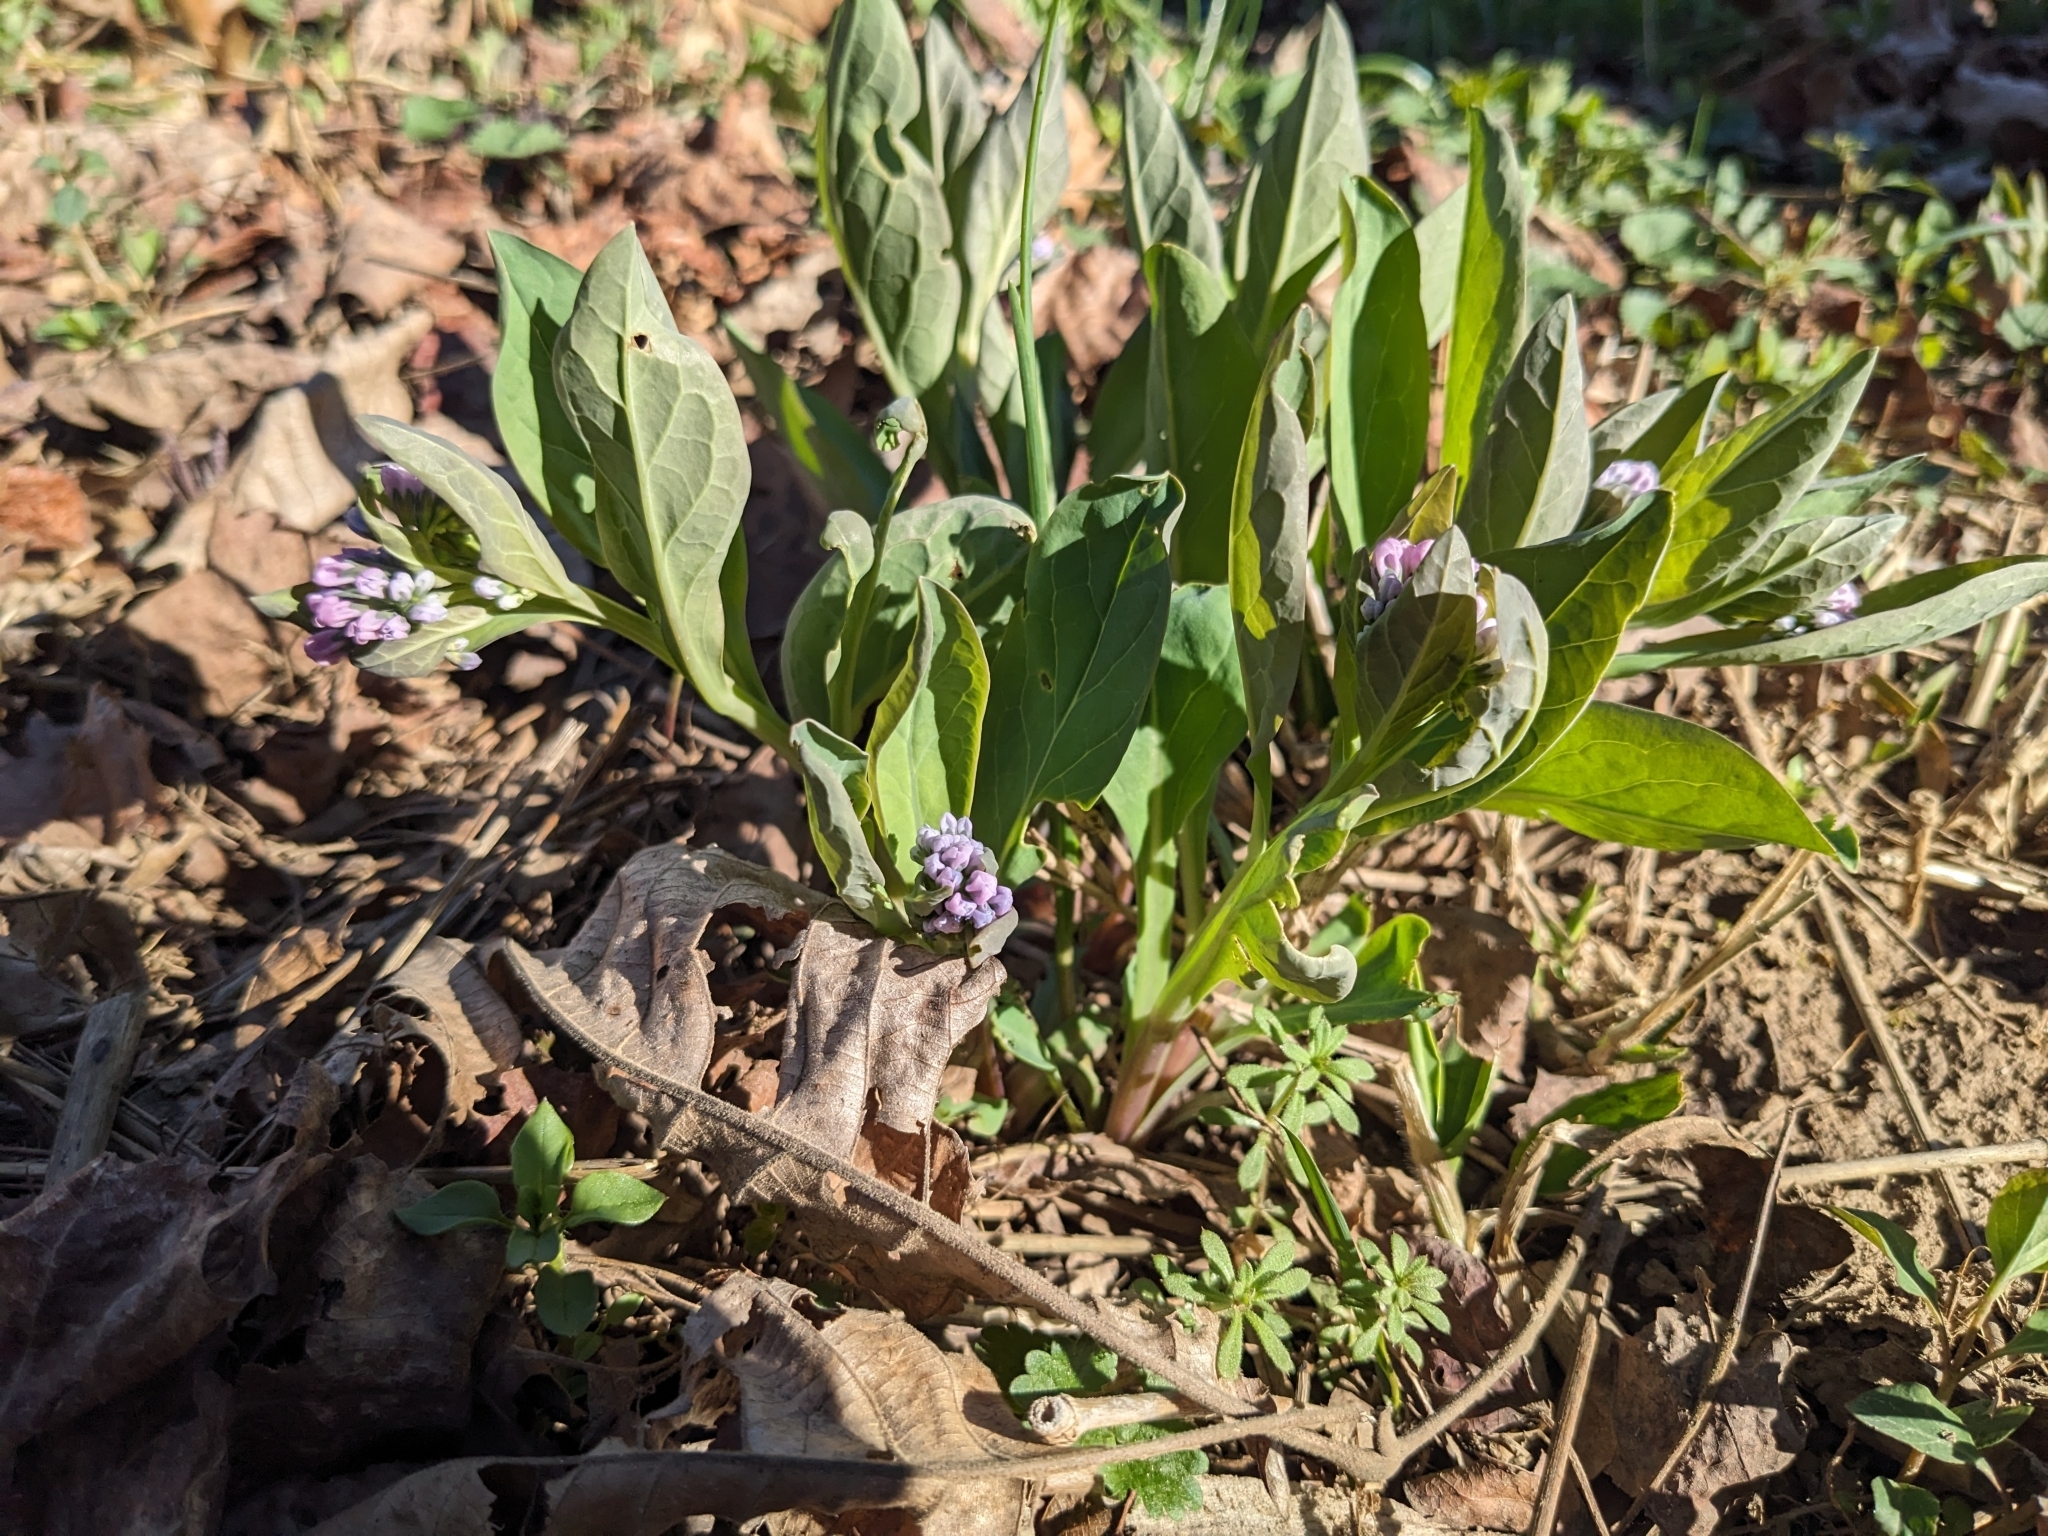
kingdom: Plantae
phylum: Tracheophyta
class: Magnoliopsida
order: Boraginales
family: Boraginaceae
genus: Mertensia
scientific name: Mertensia virginica
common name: Virginia bluebells
